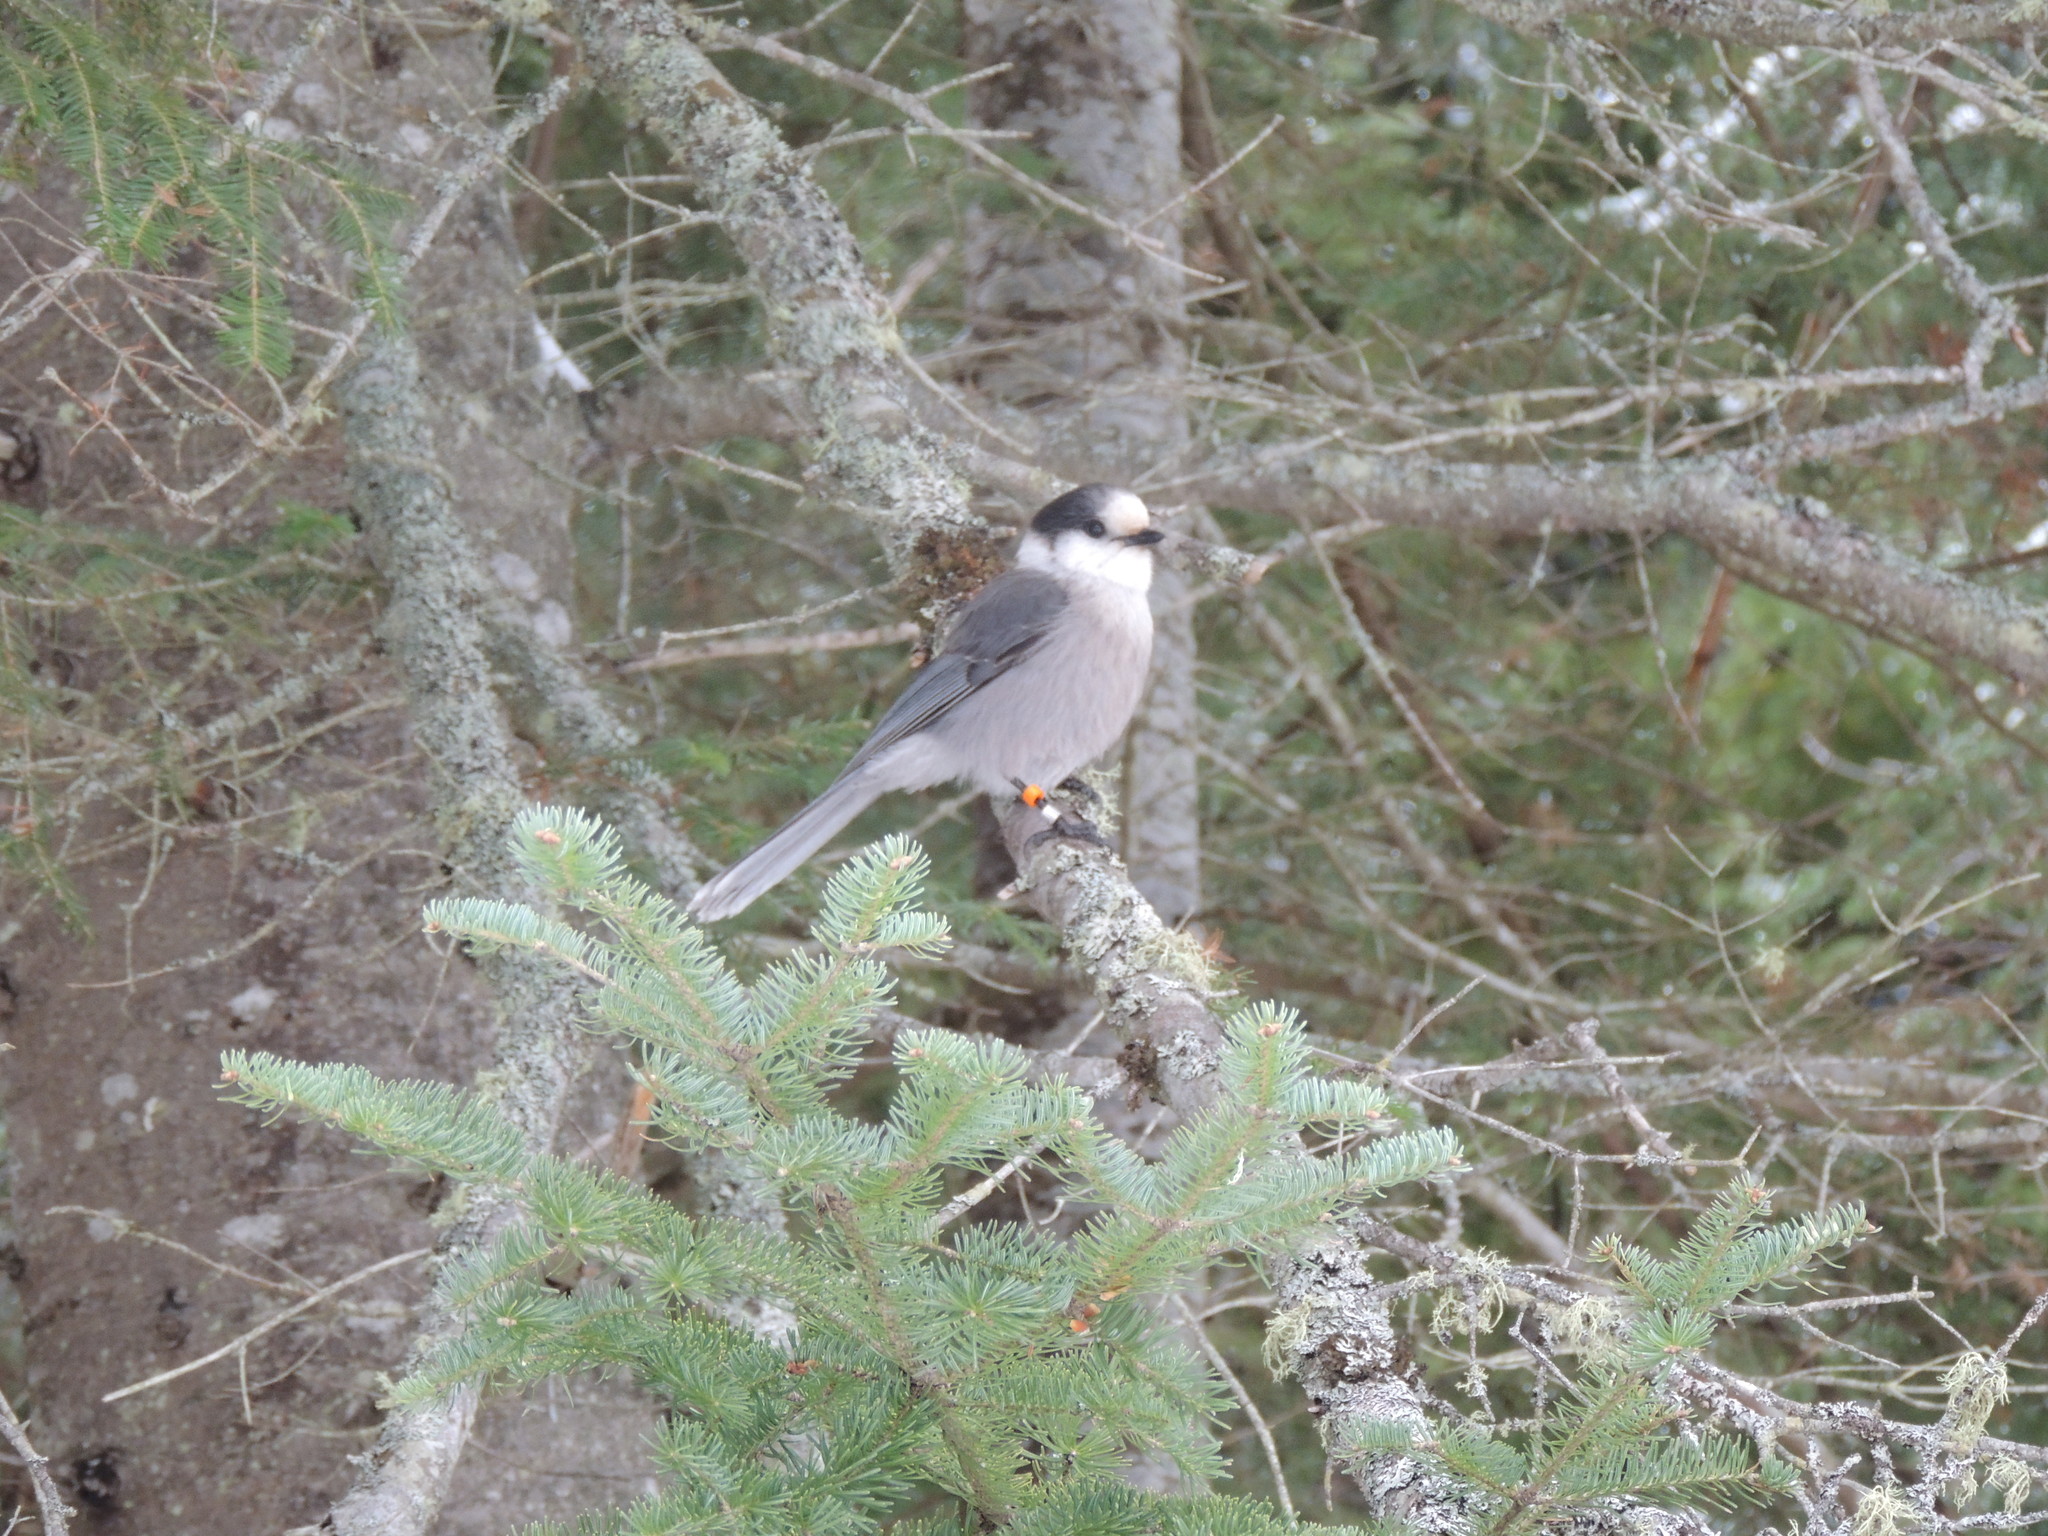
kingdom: Animalia
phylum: Chordata
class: Aves
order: Passeriformes
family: Corvidae
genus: Perisoreus
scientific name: Perisoreus canadensis
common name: Gray jay
